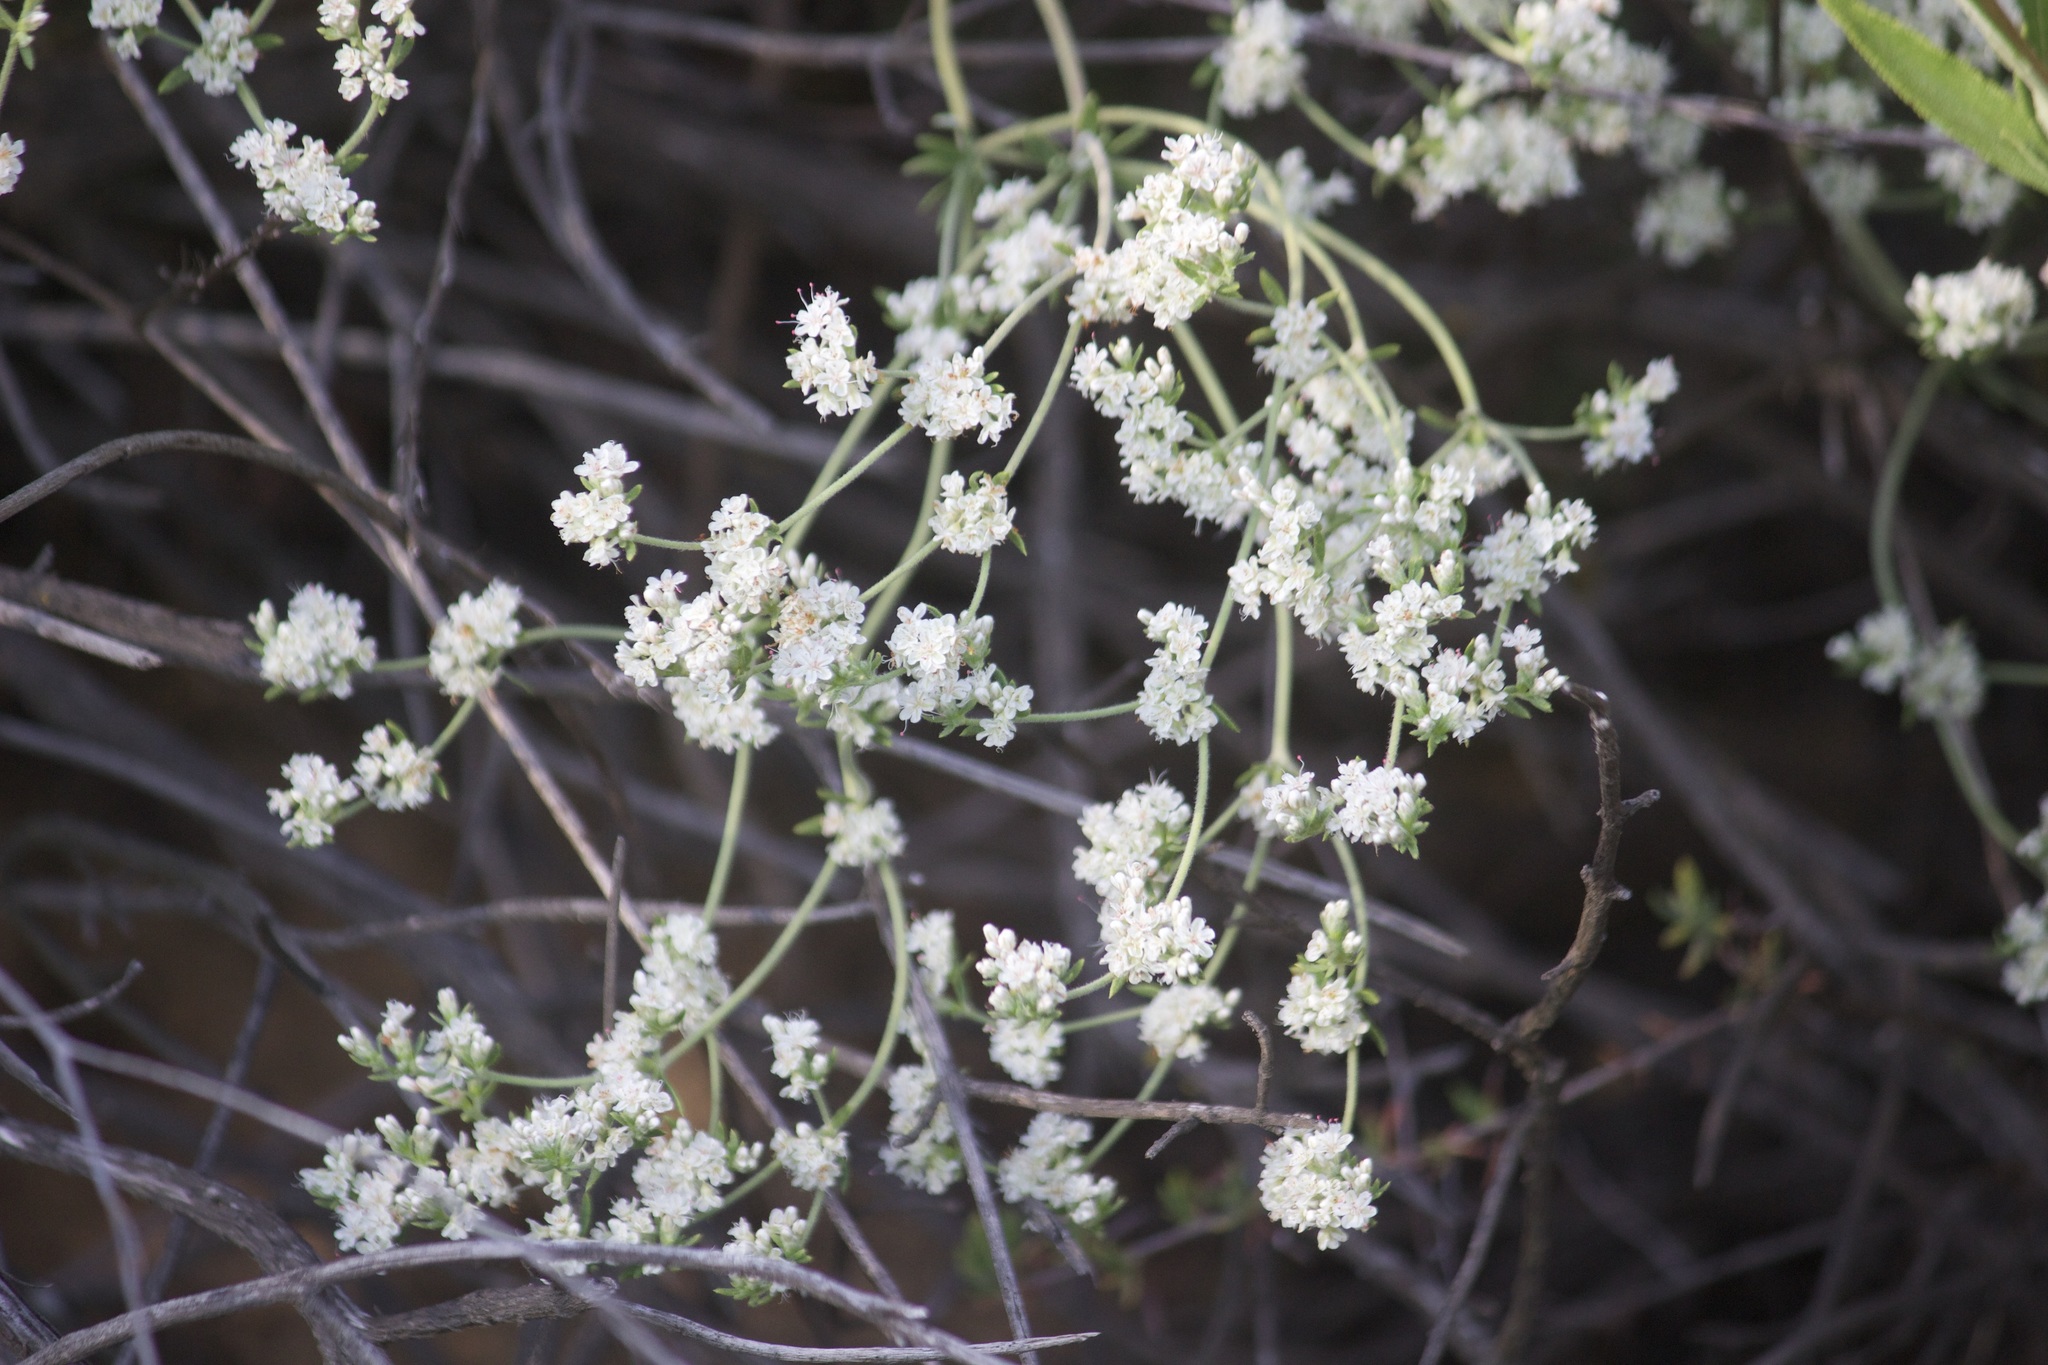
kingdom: Plantae
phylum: Tracheophyta
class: Magnoliopsida
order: Caryophyllales
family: Polygonaceae
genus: Eriogonum
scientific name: Eriogonum fasciculatum
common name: California wild buckwheat
